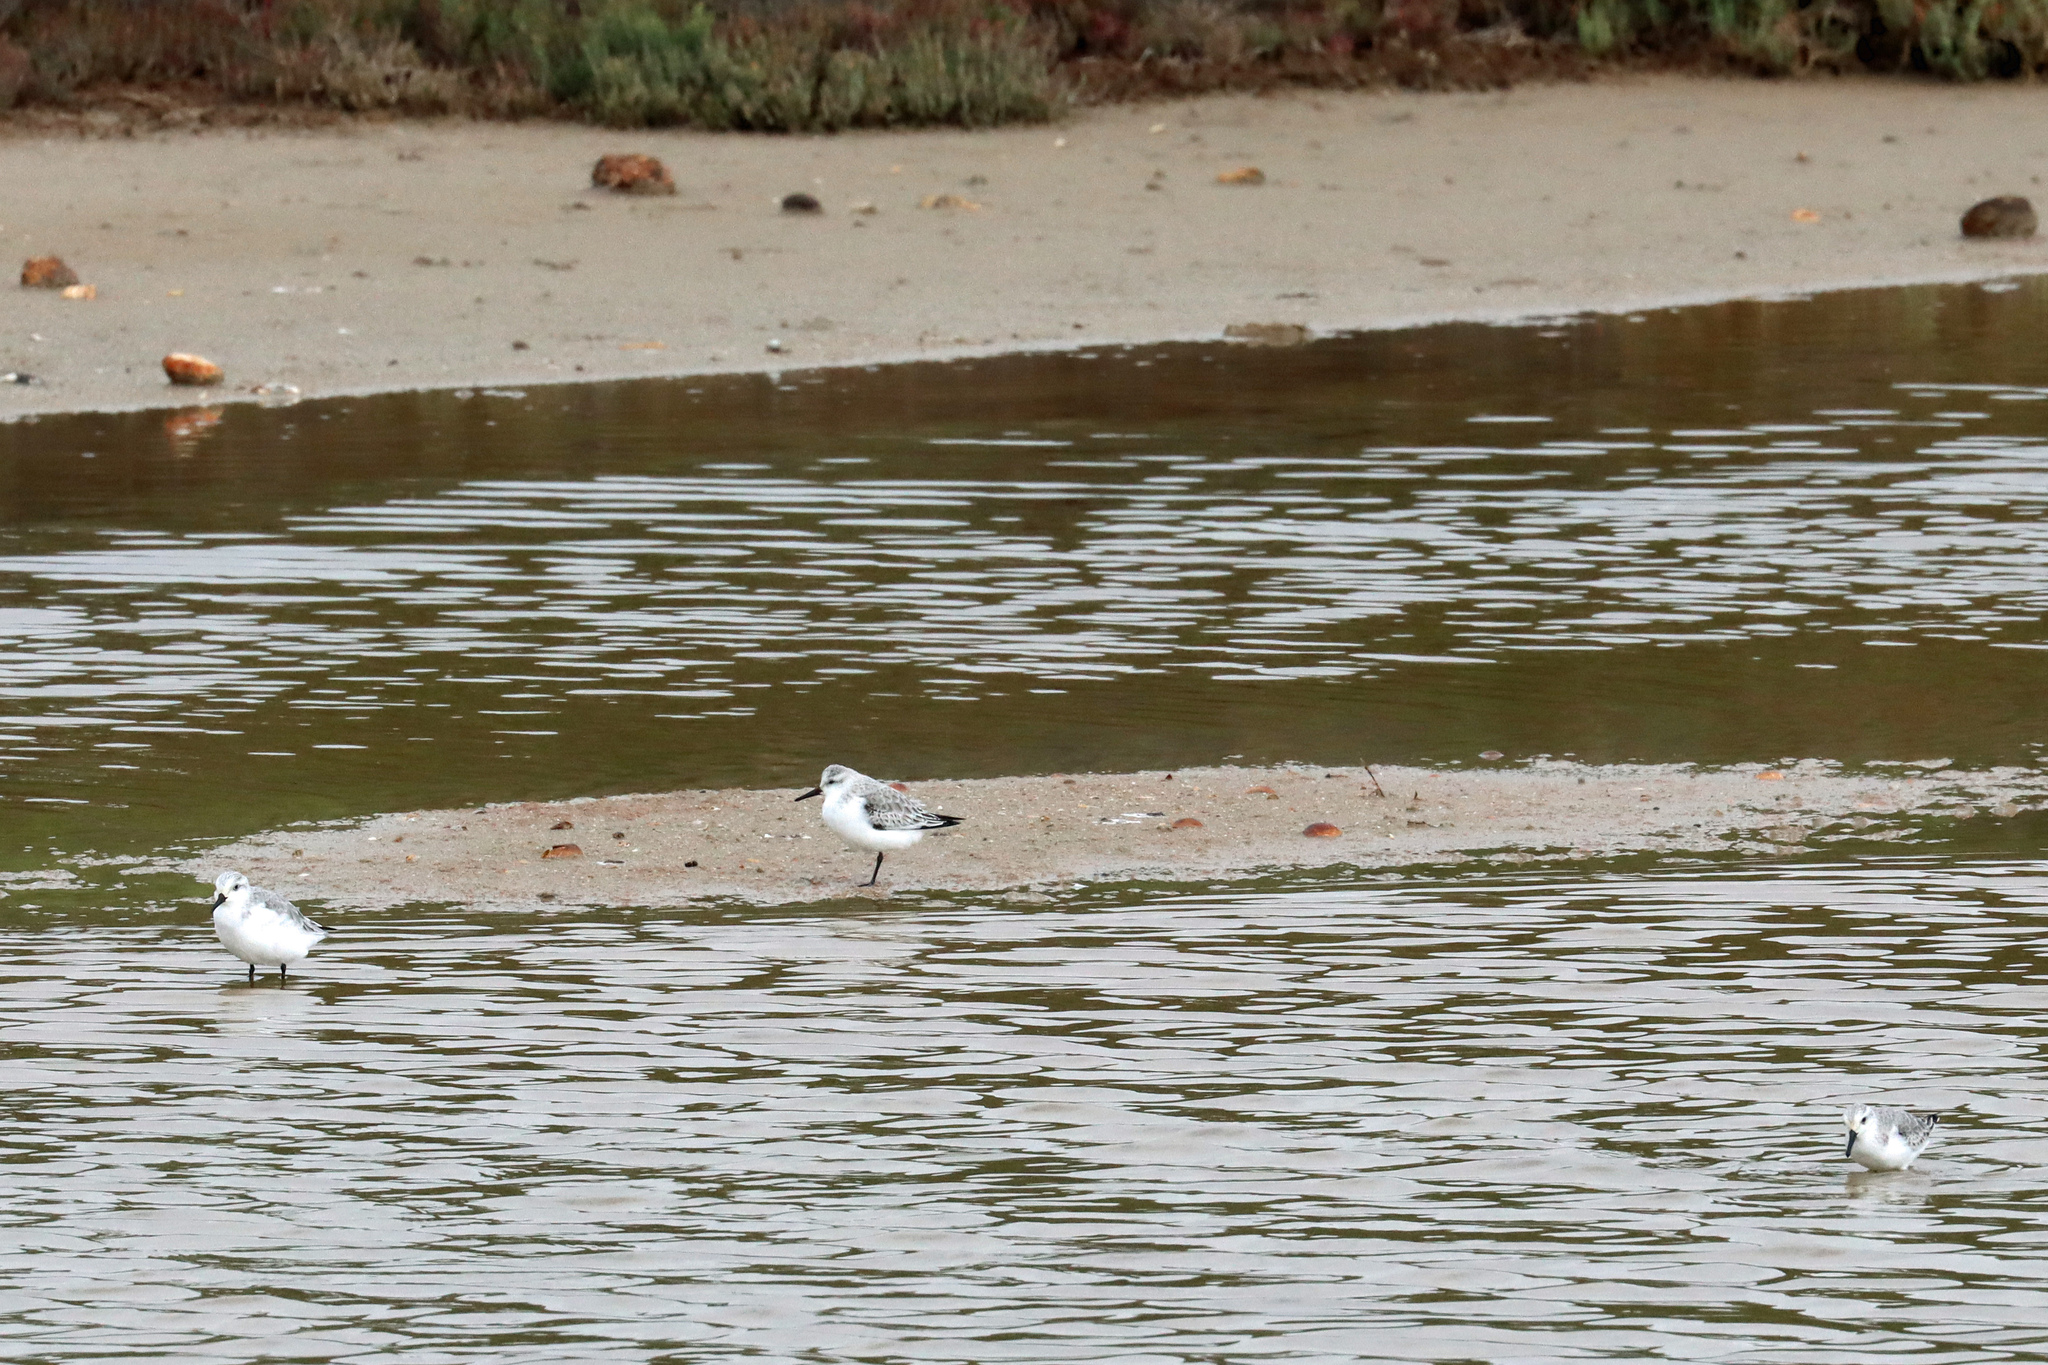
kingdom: Animalia
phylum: Chordata
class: Aves
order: Charadriiformes
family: Scolopacidae
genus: Calidris
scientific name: Calidris alba
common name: Sanderling
